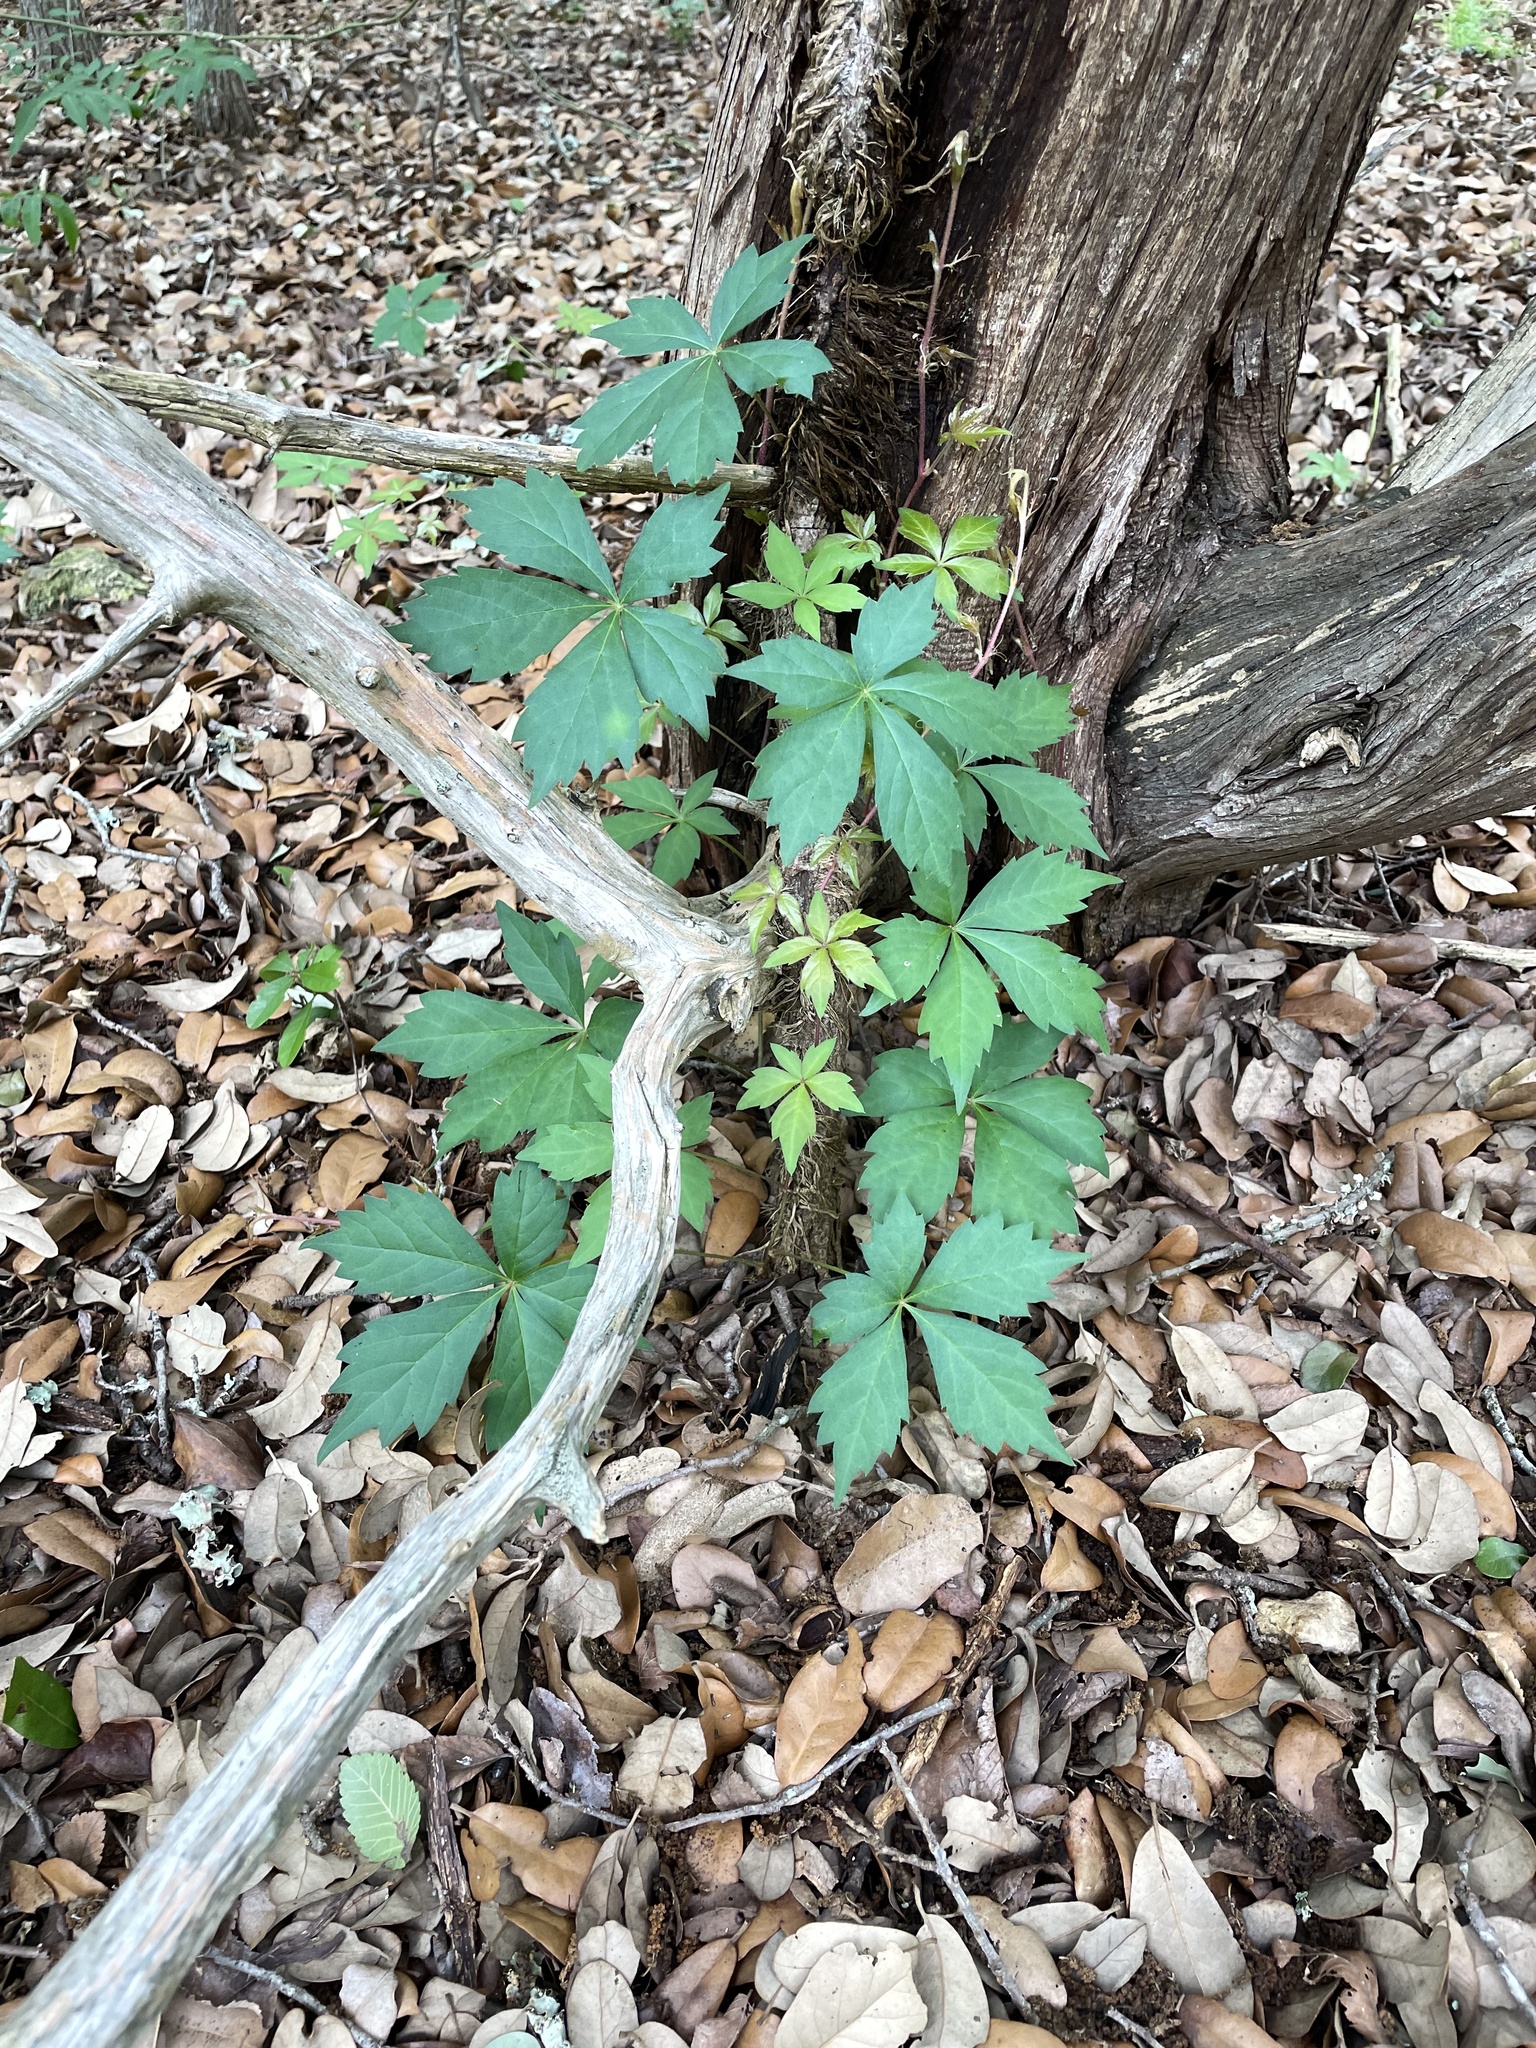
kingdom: Plantae
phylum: Tracheophyta
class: Magnoliopsida
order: Vitales
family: Vitaceae
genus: Parthenocissus
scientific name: Parthenocissus quinquefolia
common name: Virginia-creeper
